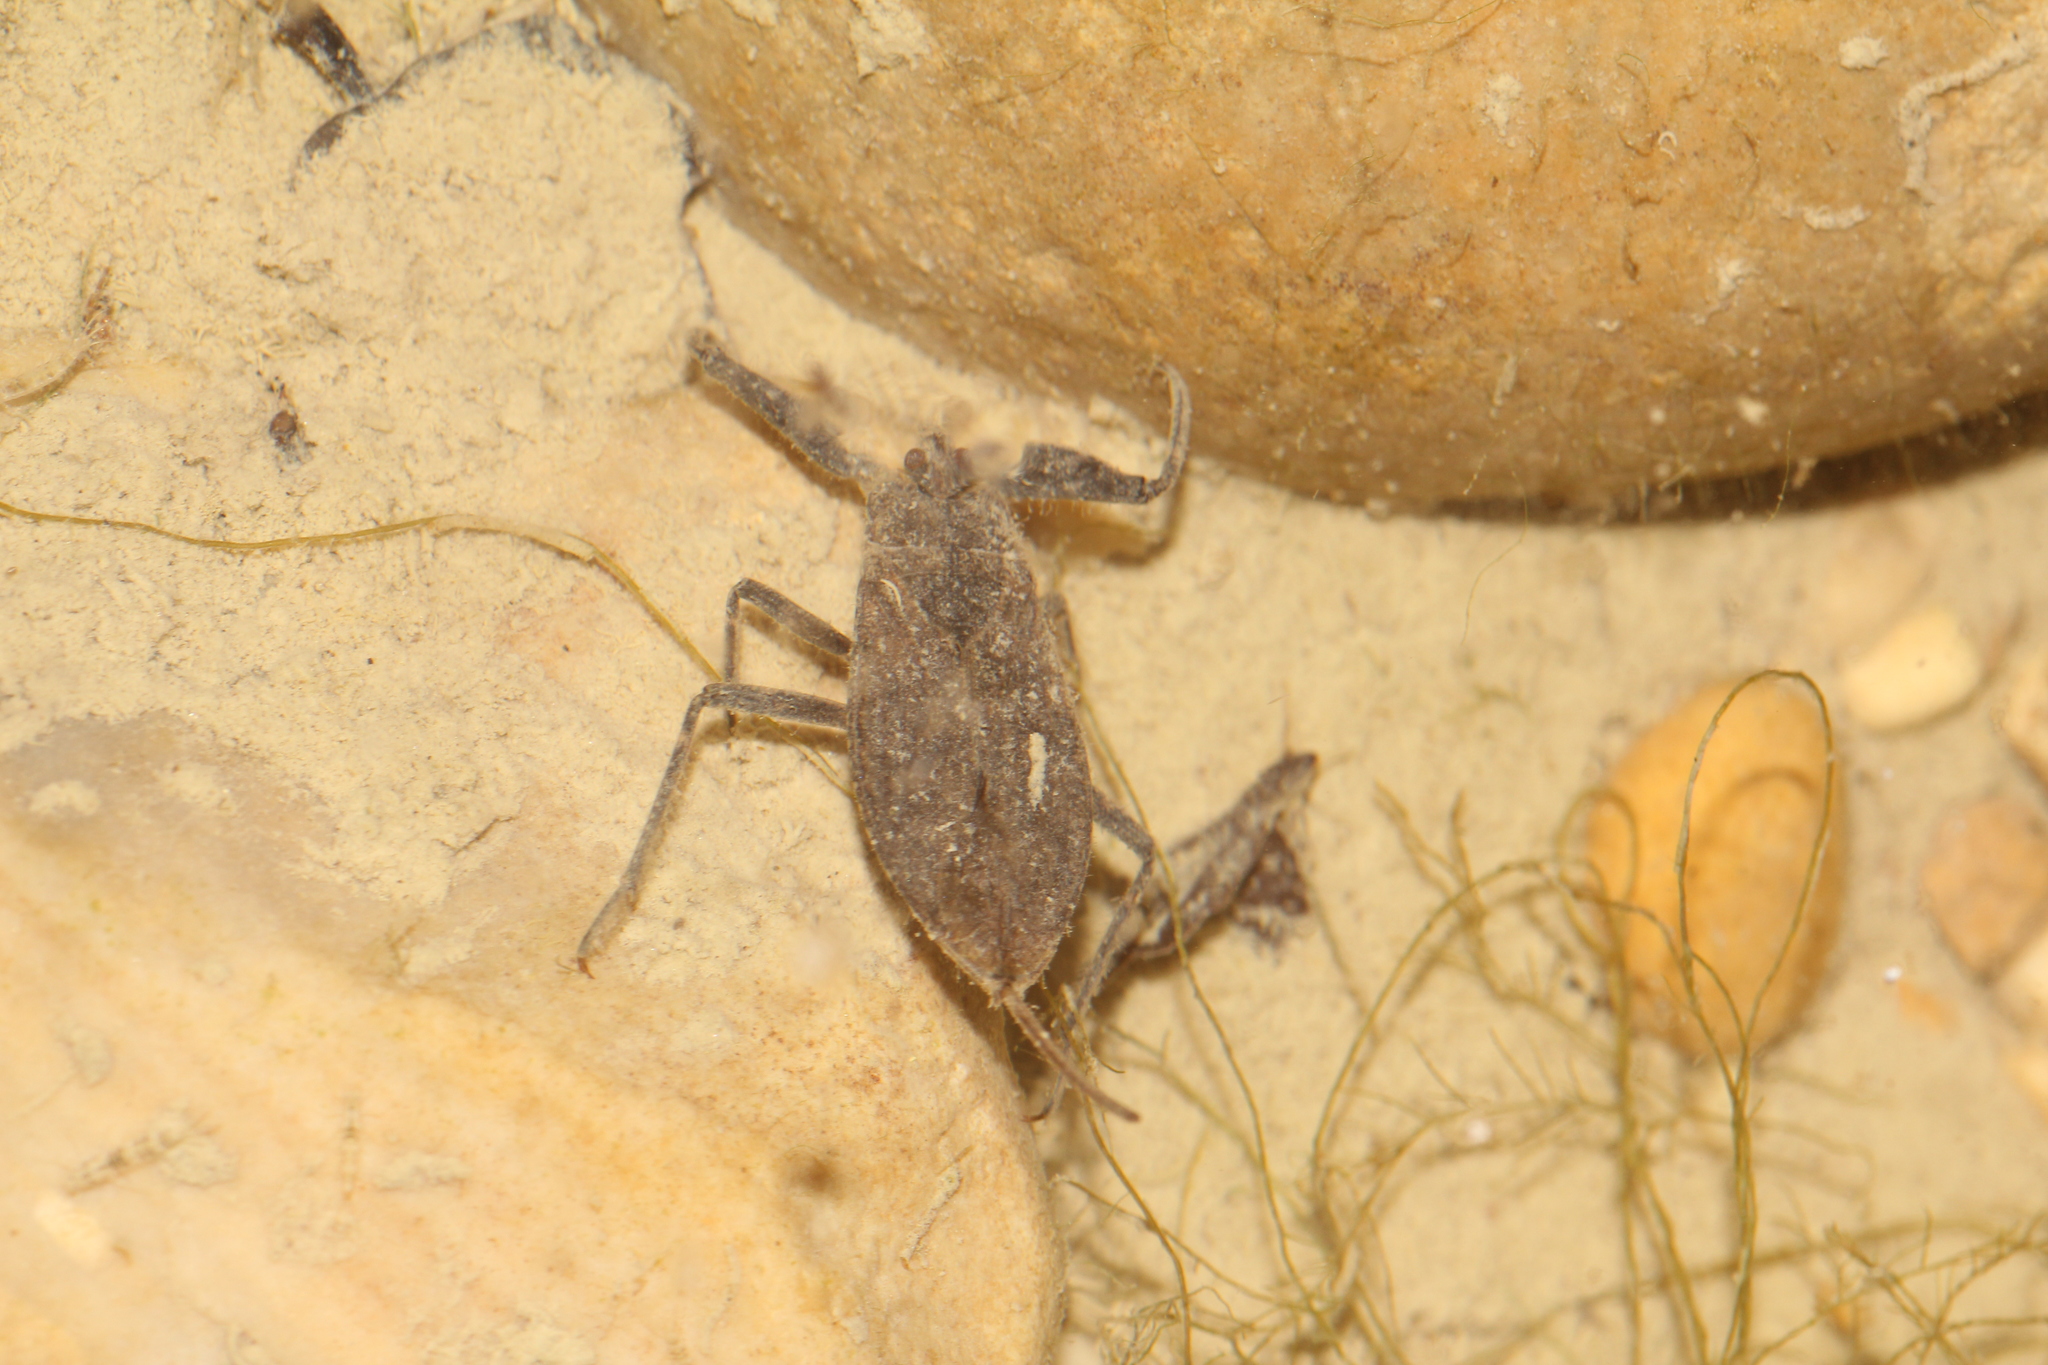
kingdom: Animalia
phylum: Arthropoda
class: Insecta
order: Hemiptera
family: Nepidae
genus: Nepa
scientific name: Nepa cinerea
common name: Water scorpion
